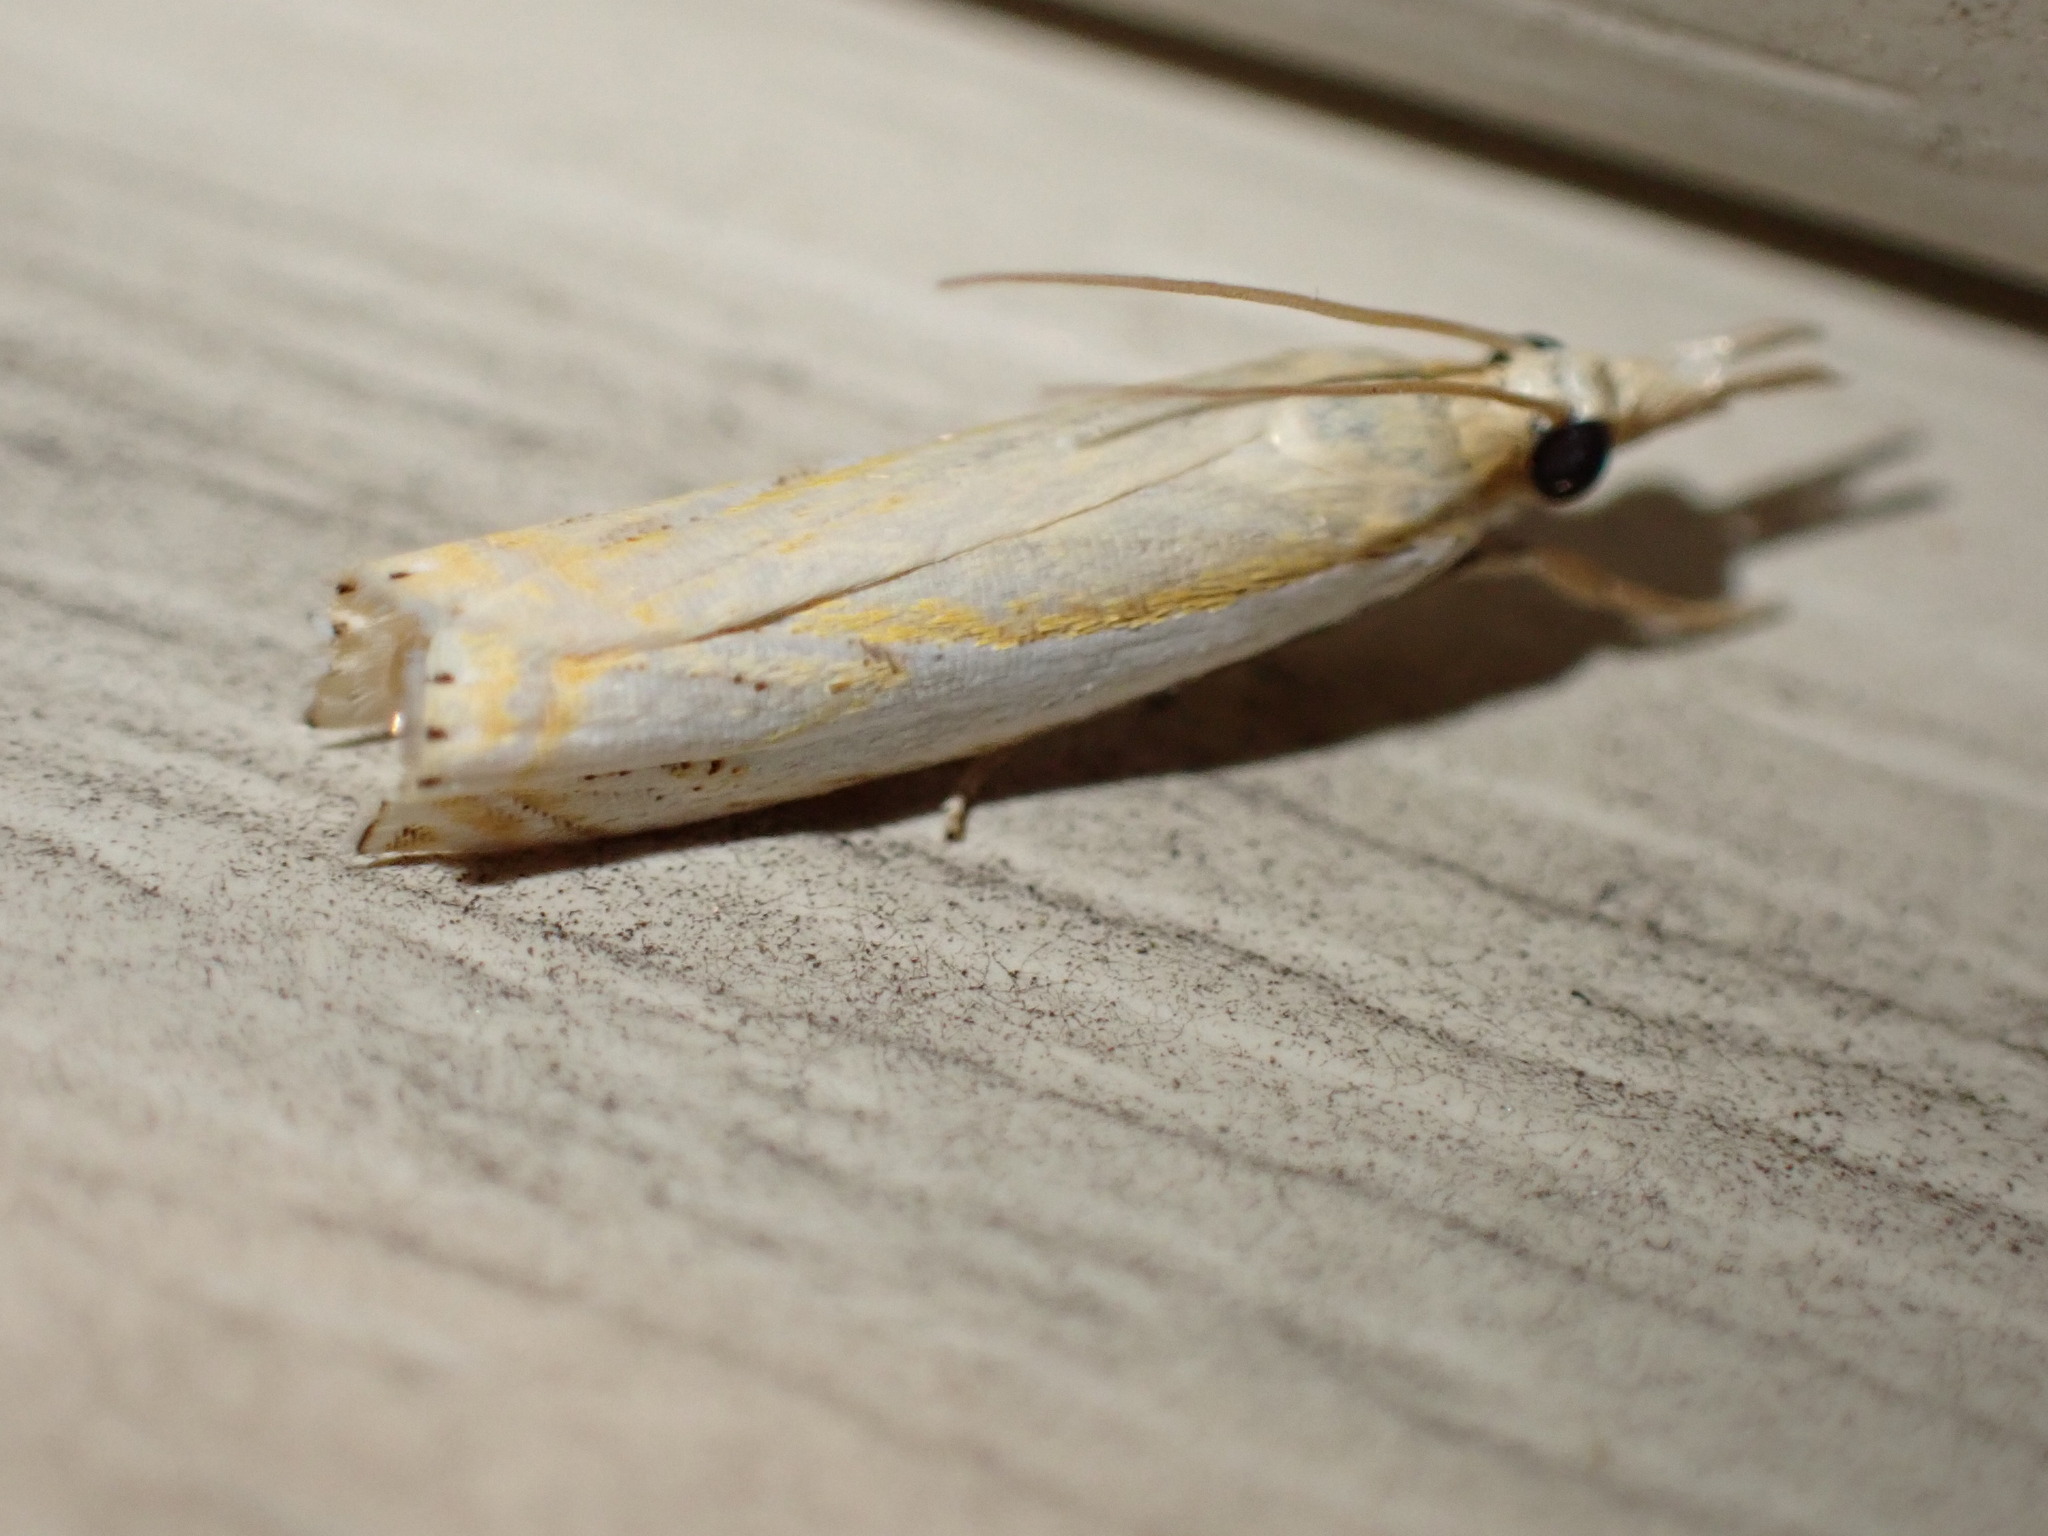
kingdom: Animalia
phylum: Arthropoda
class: Insecta
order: Lepidoptera
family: Crambidae
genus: Crambus
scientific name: Crambus agitatellus
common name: Double-banded grass-veneer
